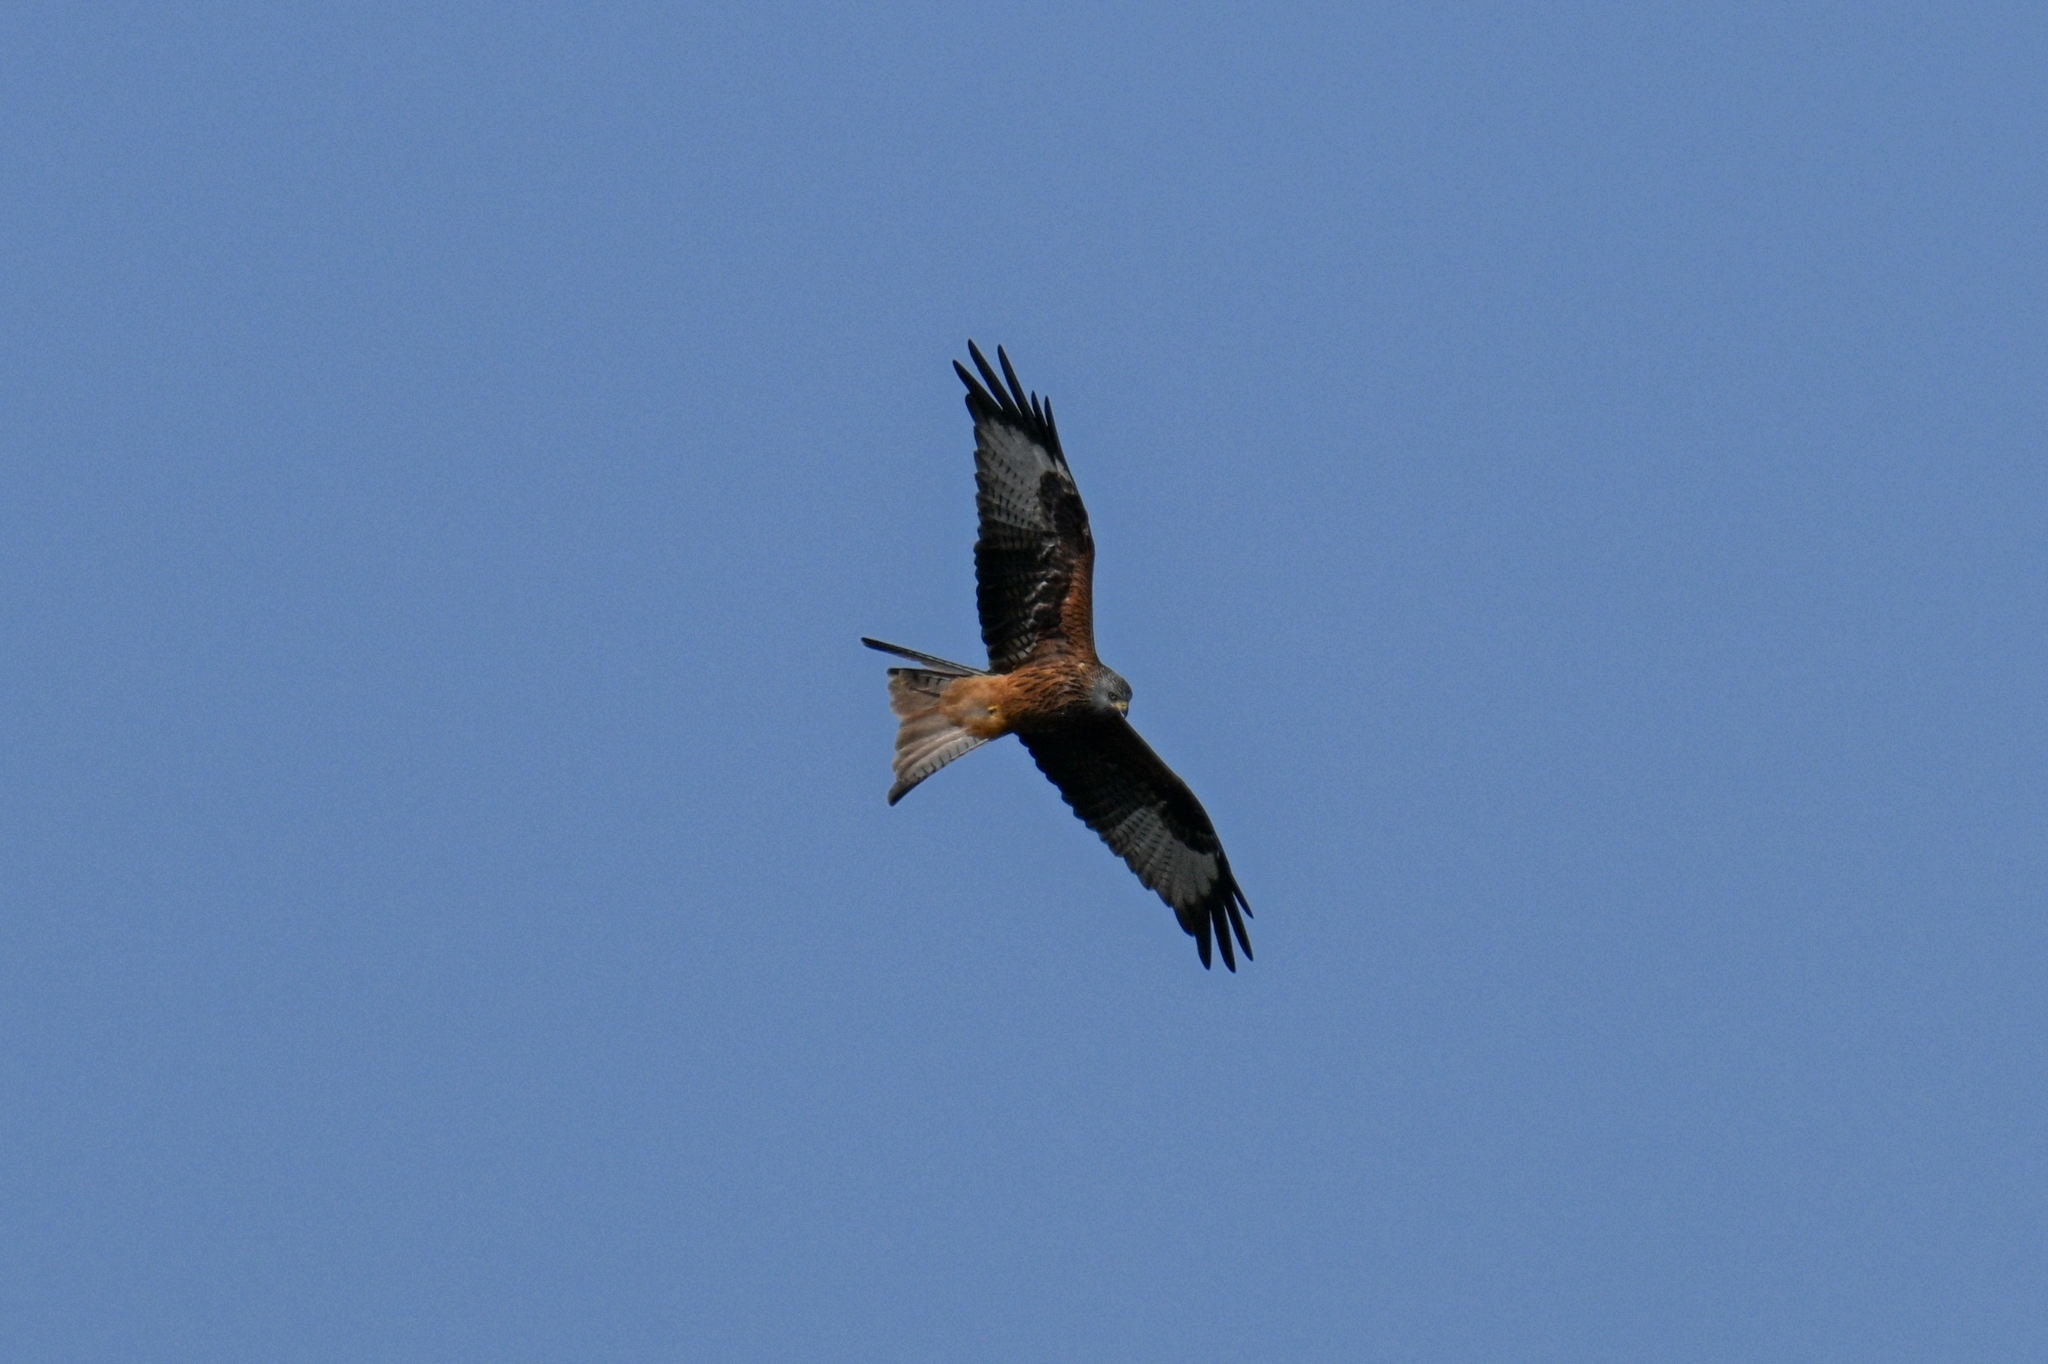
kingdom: Animalia
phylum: Chordata
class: Aves
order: Accipitriformes
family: Accipitridae
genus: Milvus
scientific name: Milvus milvus
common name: Red kite
